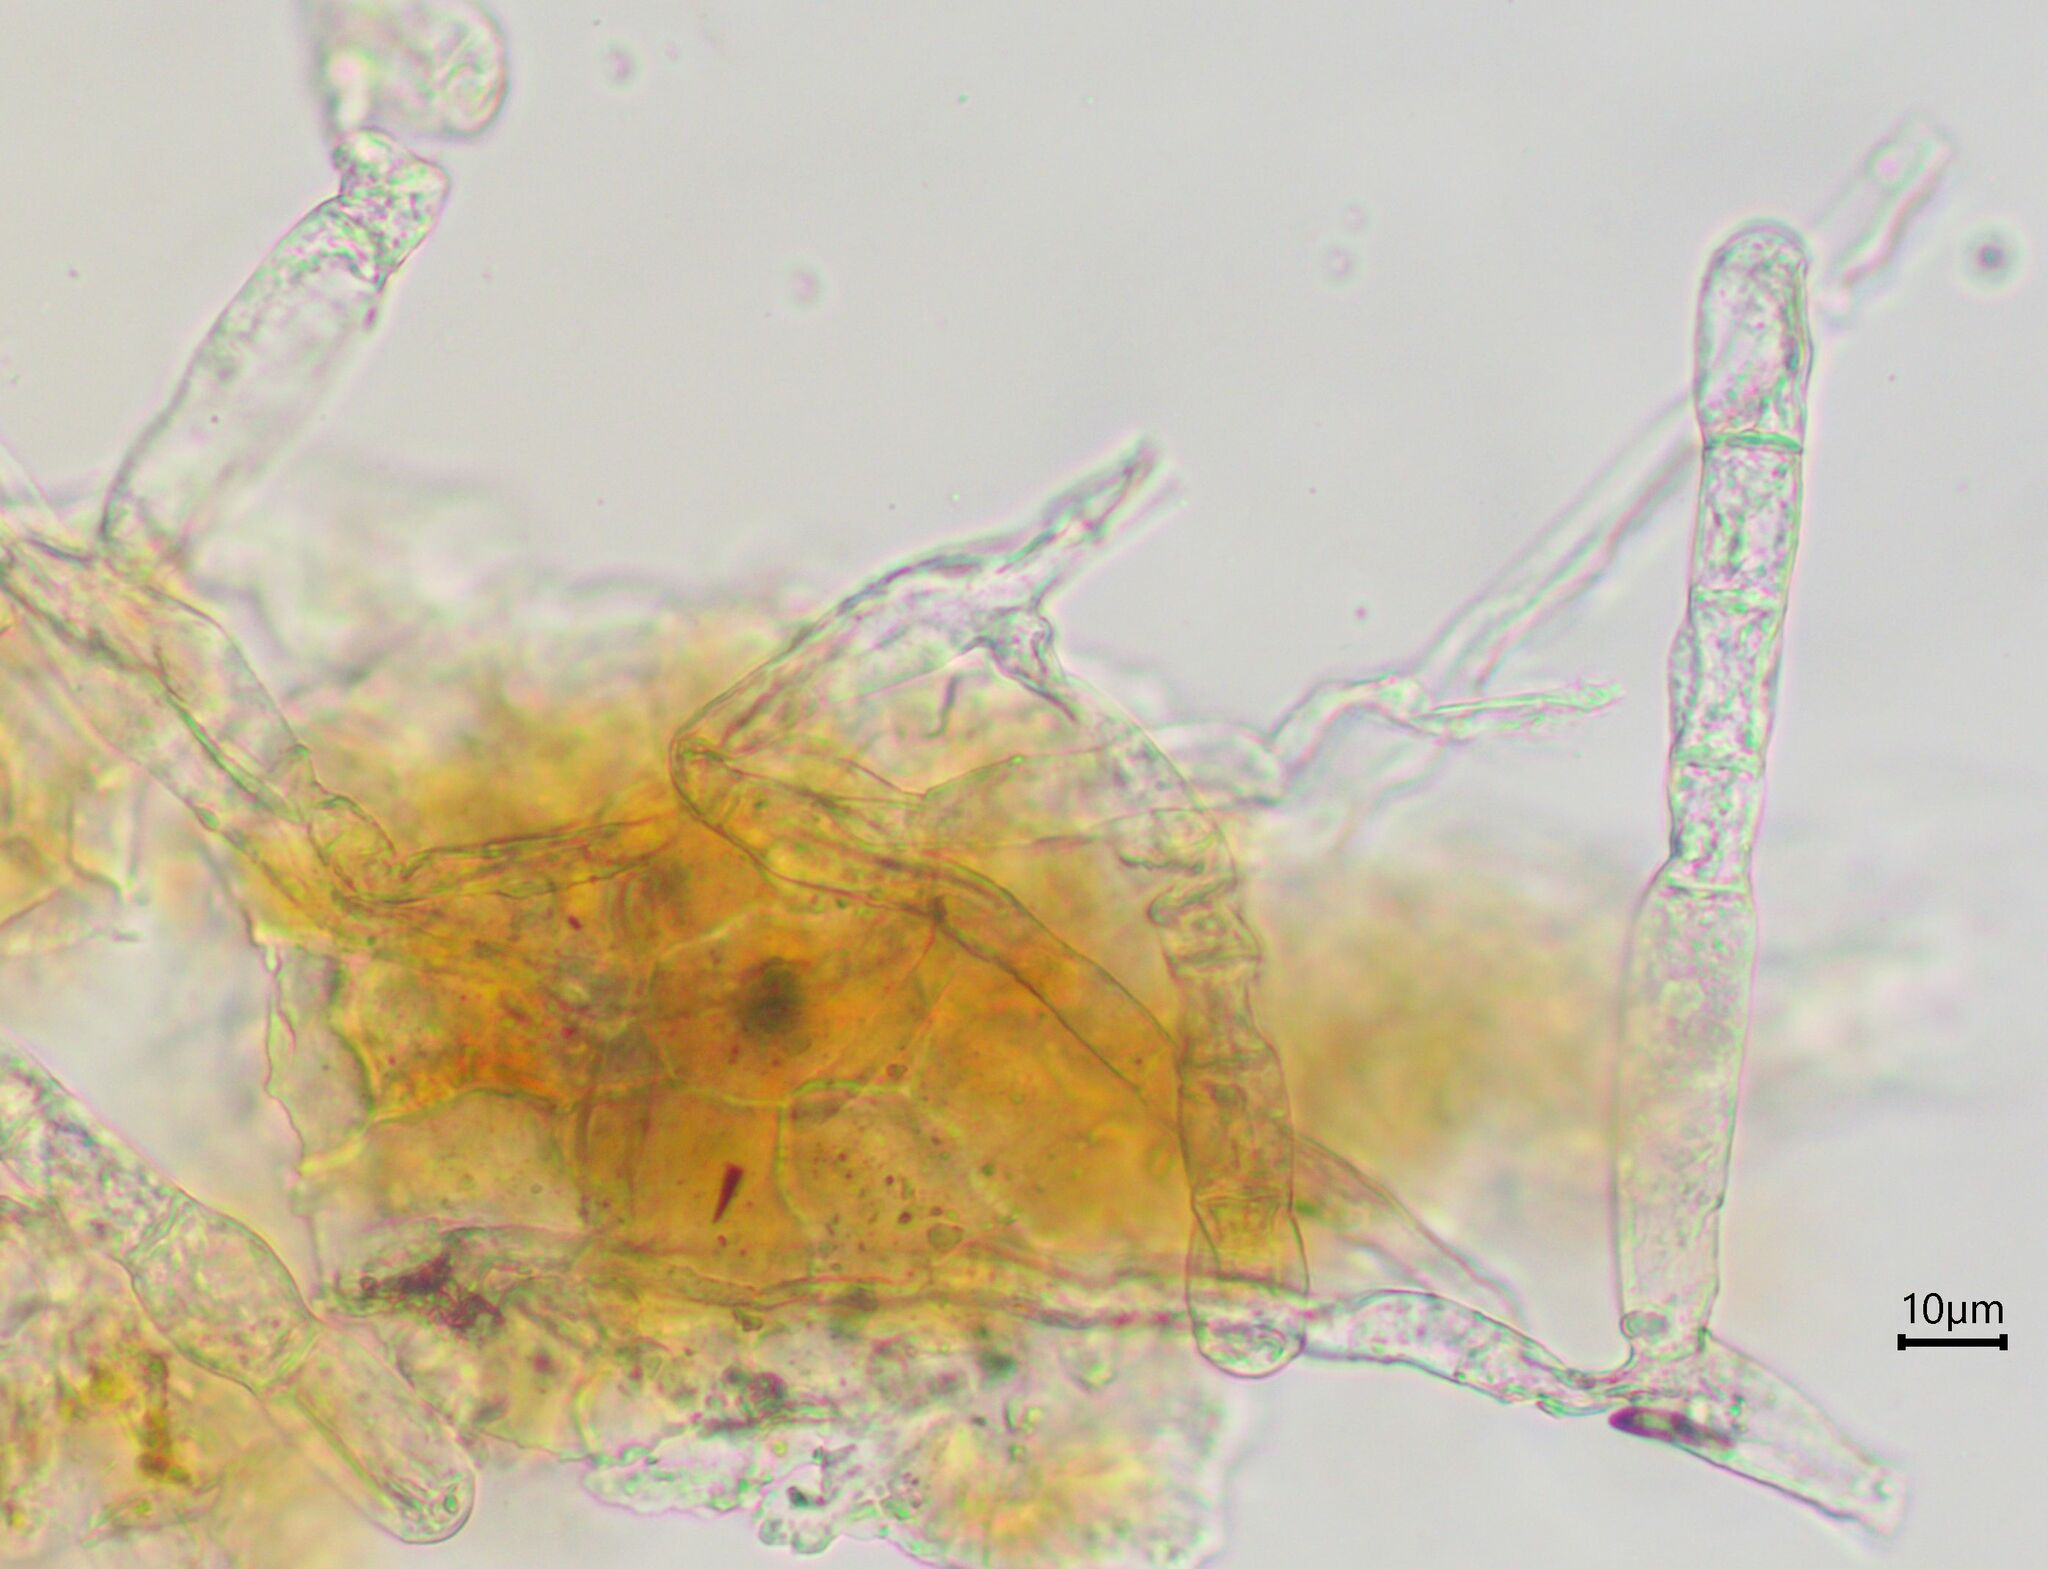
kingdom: Fungi
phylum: Ascomycota
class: Leotiomycetes
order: Helotiales
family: Erysiphaceae
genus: Erysiphe
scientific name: Erysiphe
